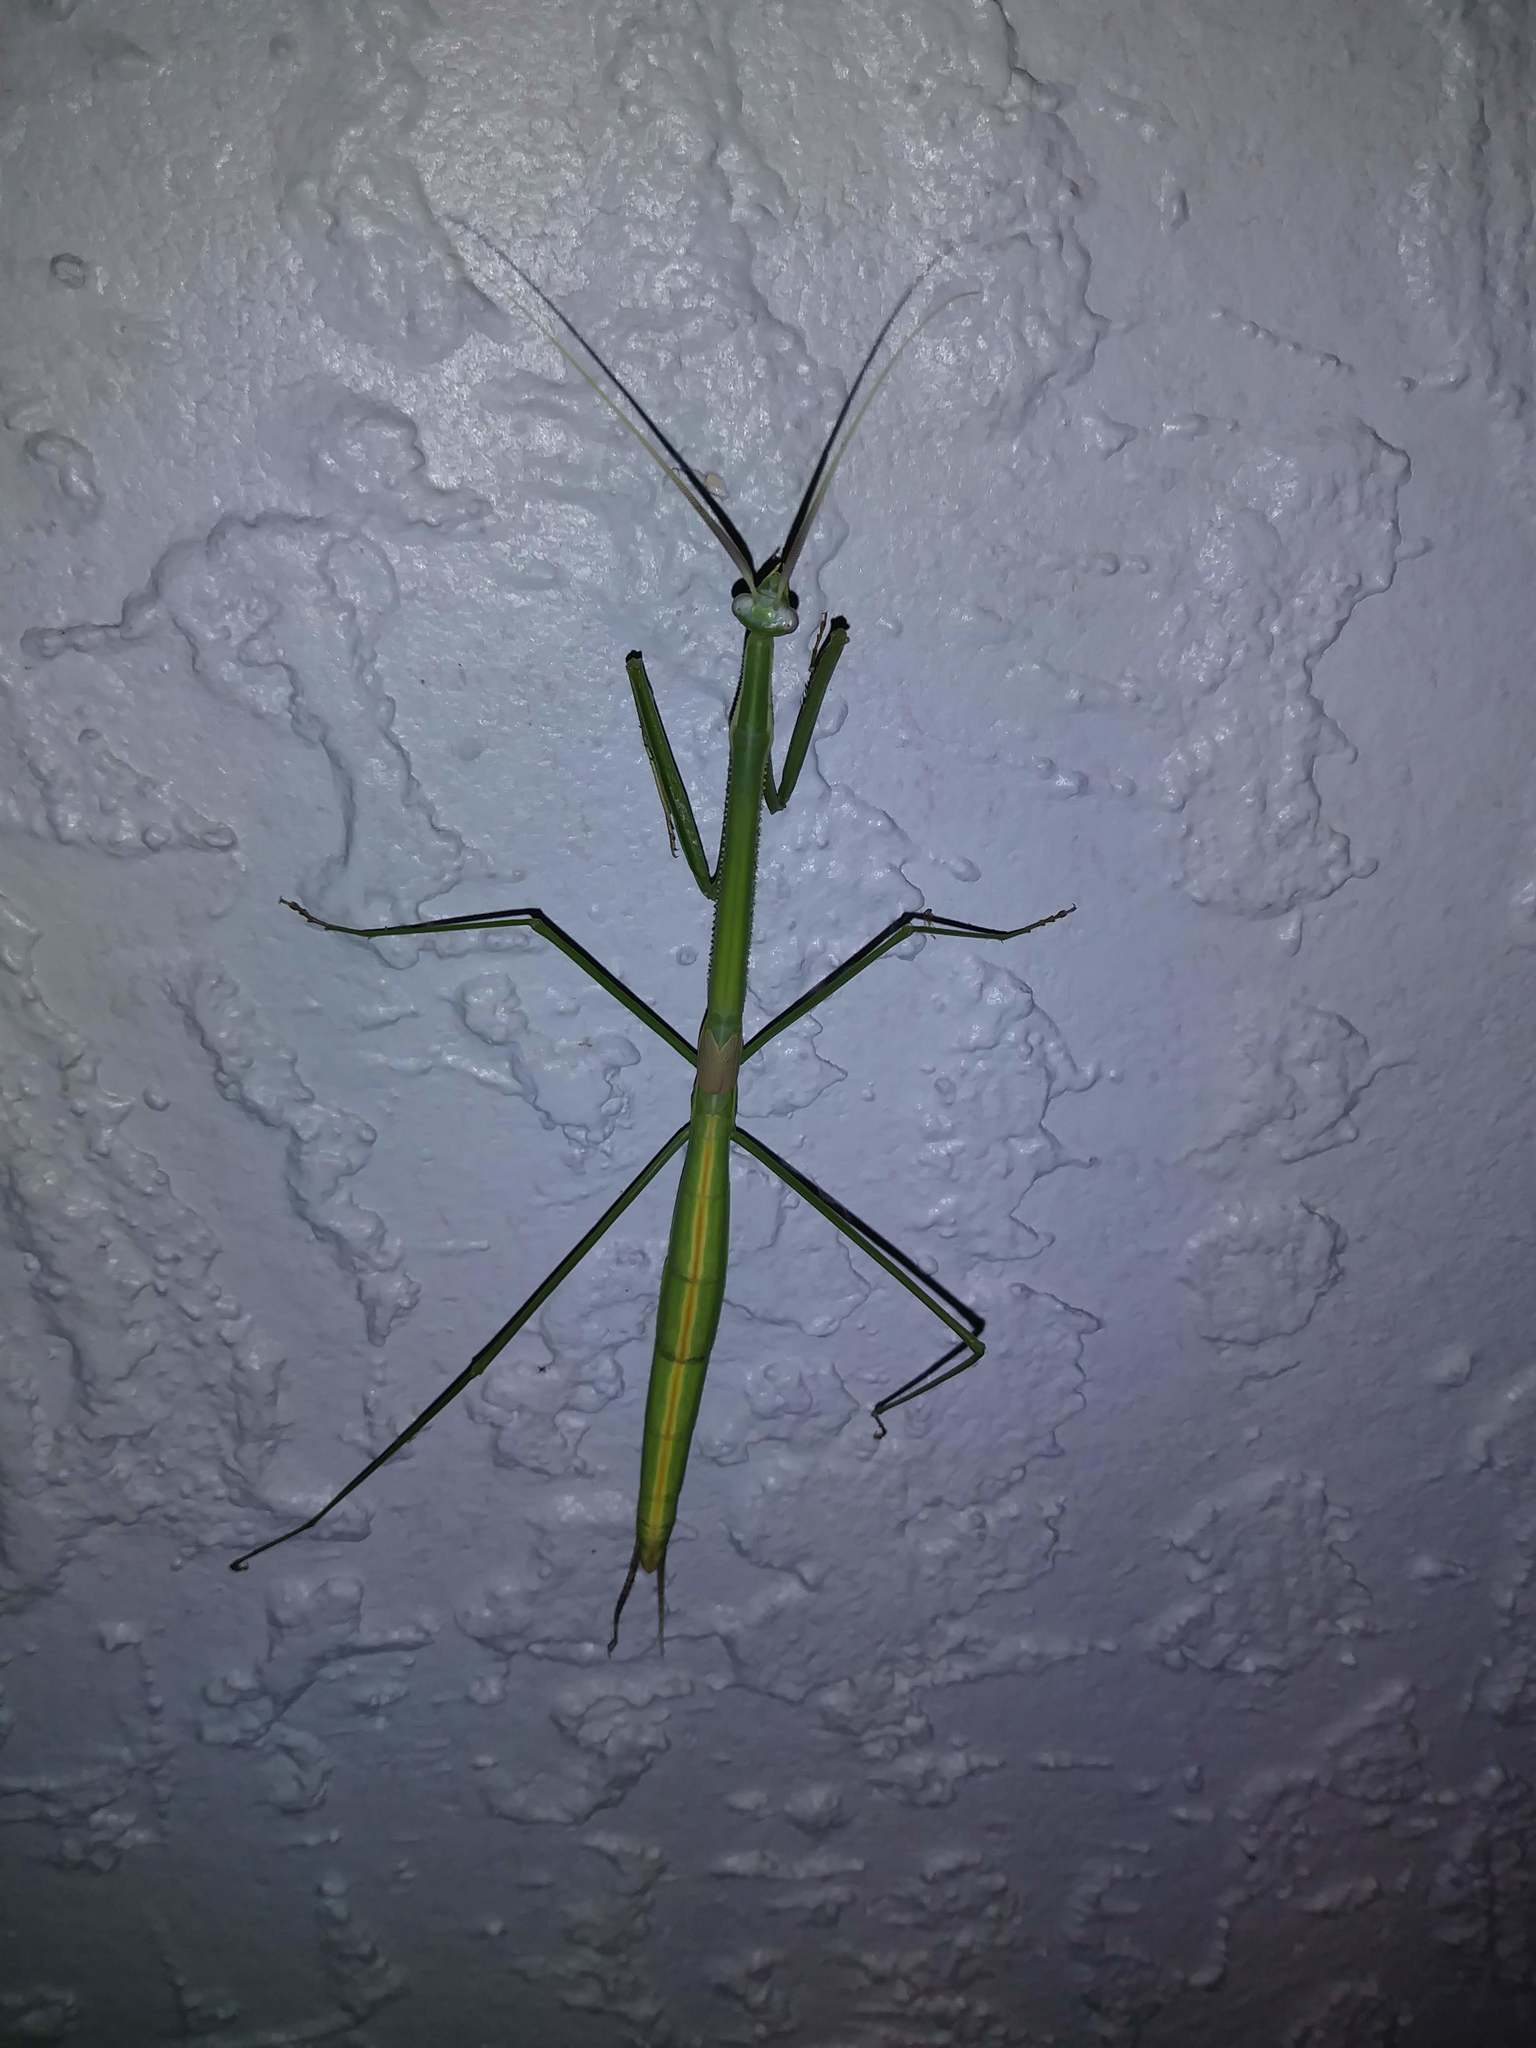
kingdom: Animalia
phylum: Arthropoda
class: Insecta
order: Mantodea
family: Coptopterygidae
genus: Brunneria
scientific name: Brunneria borealis
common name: Mantis
